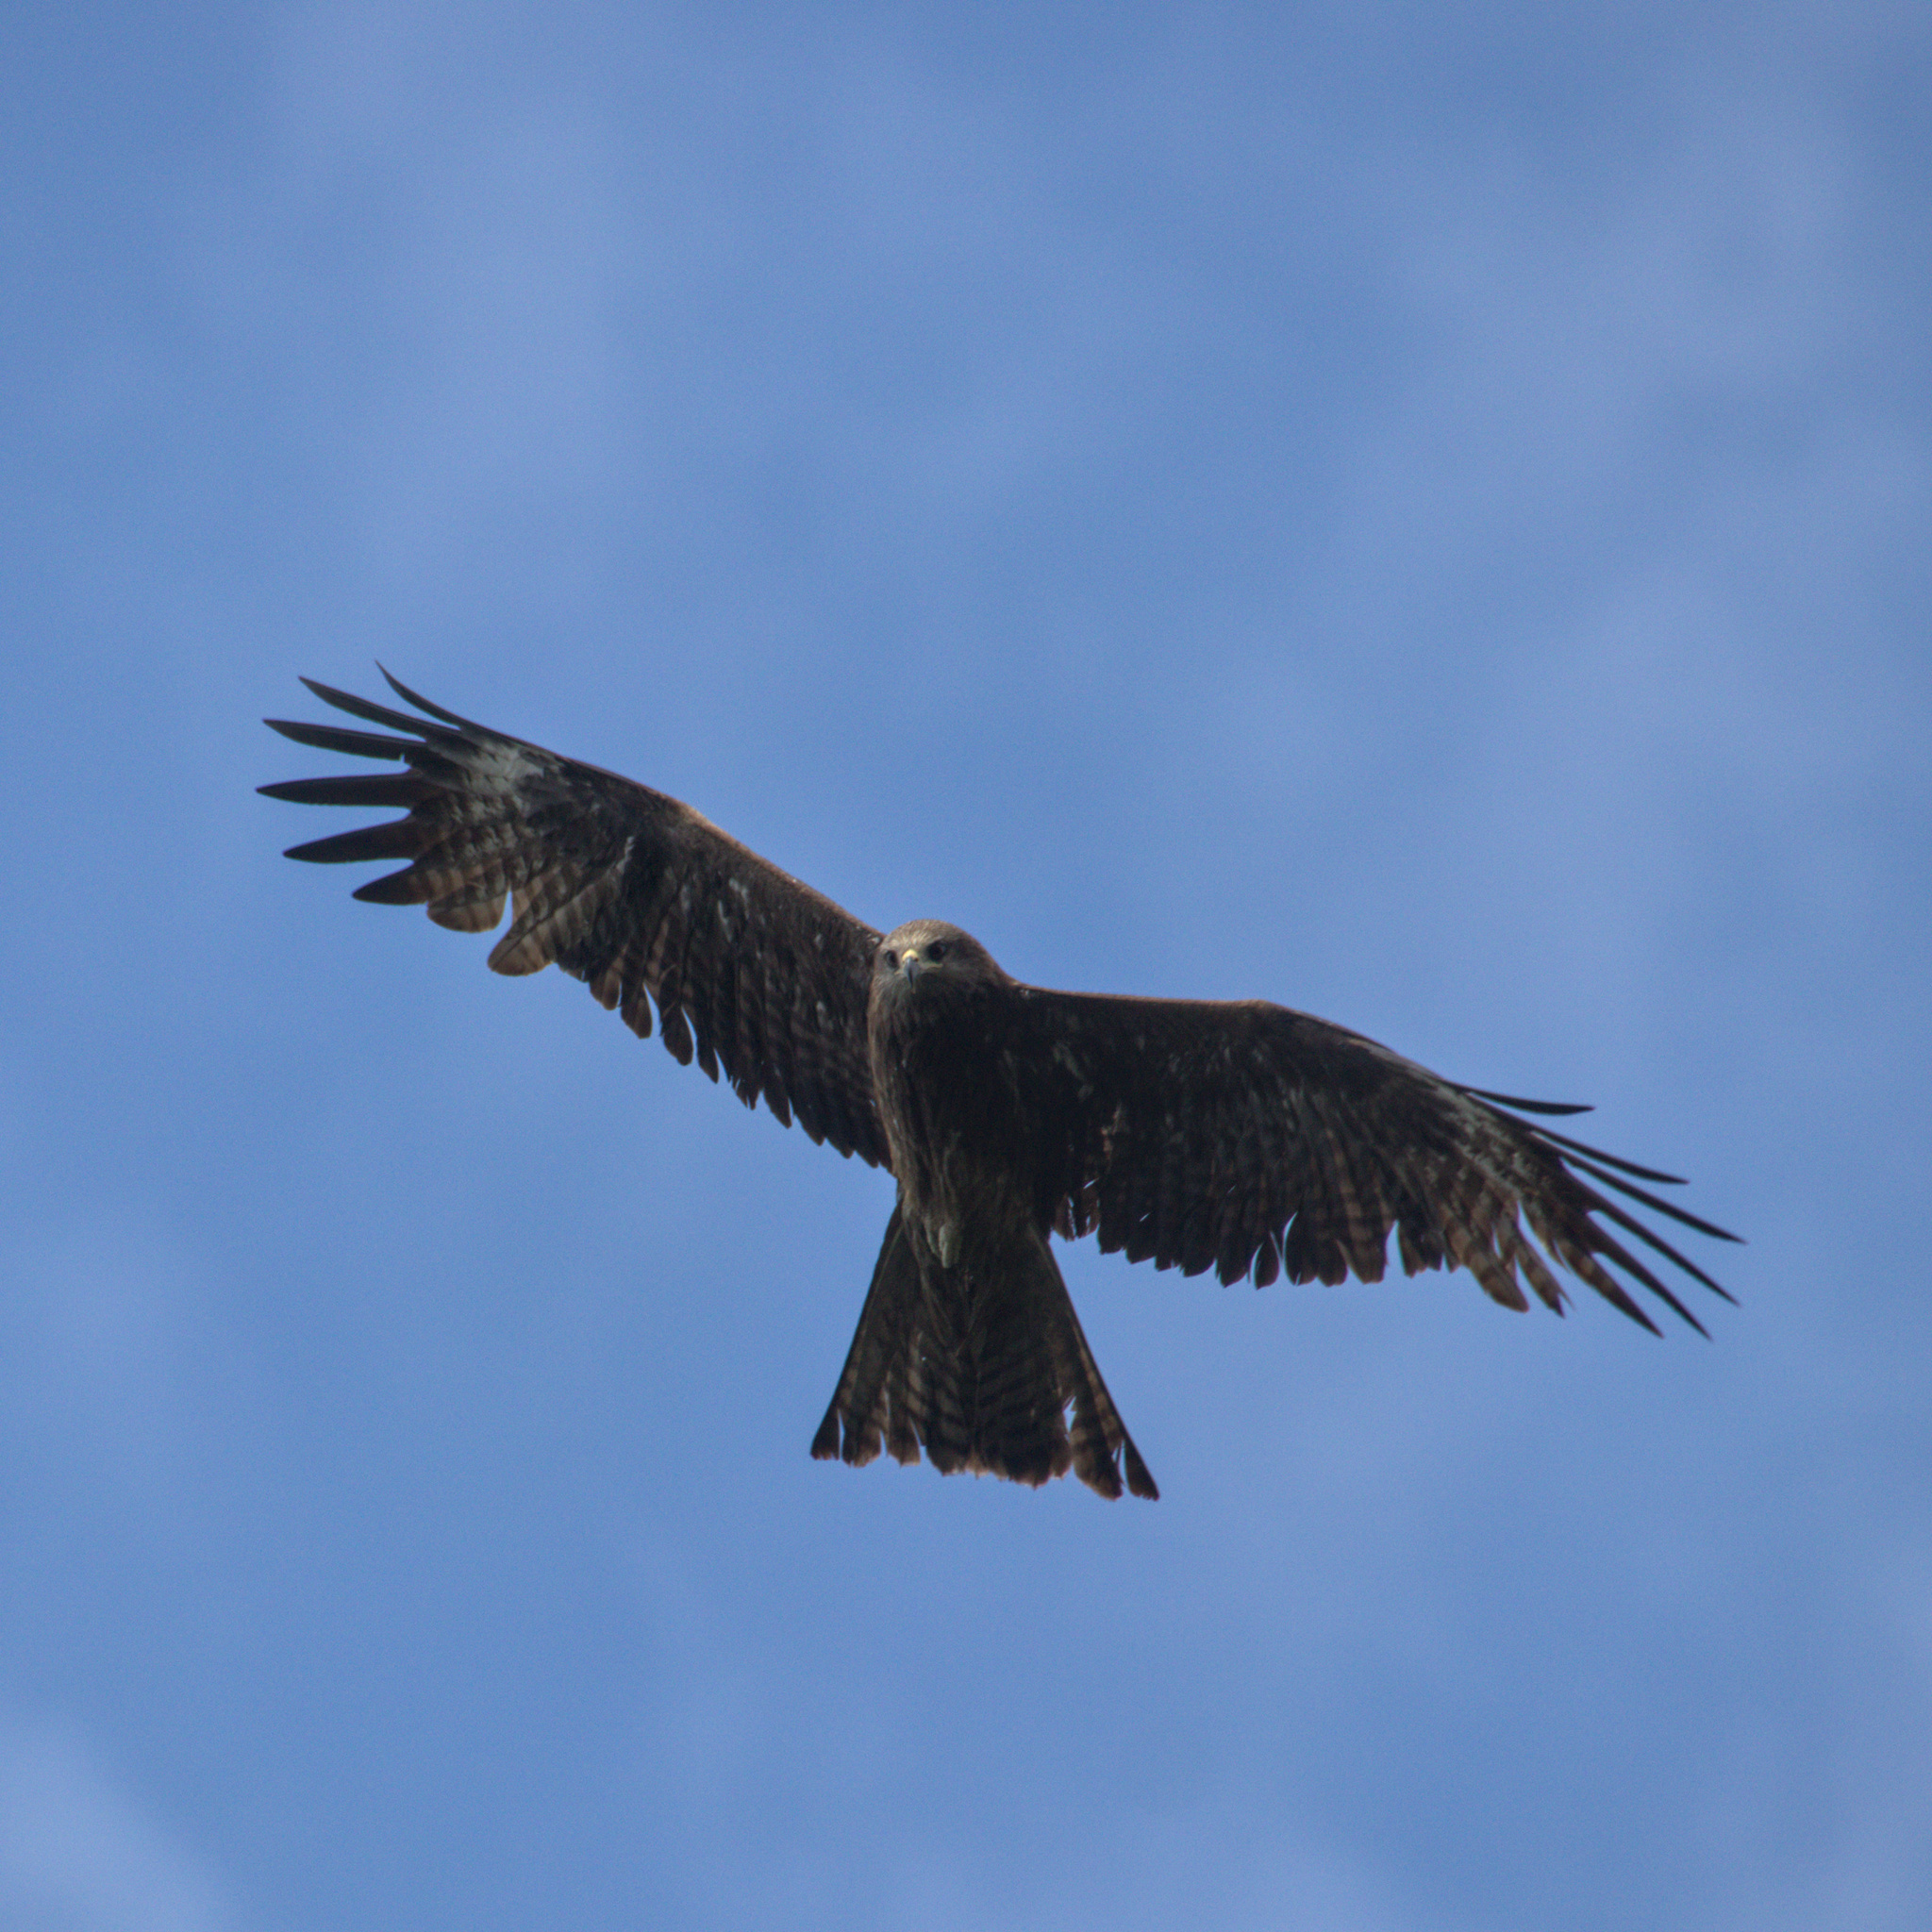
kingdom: Animalia
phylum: Chordata
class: Aves
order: Accipitriformes
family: Accipitridae
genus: Milvus
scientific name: Milvus migrans
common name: Black kite
